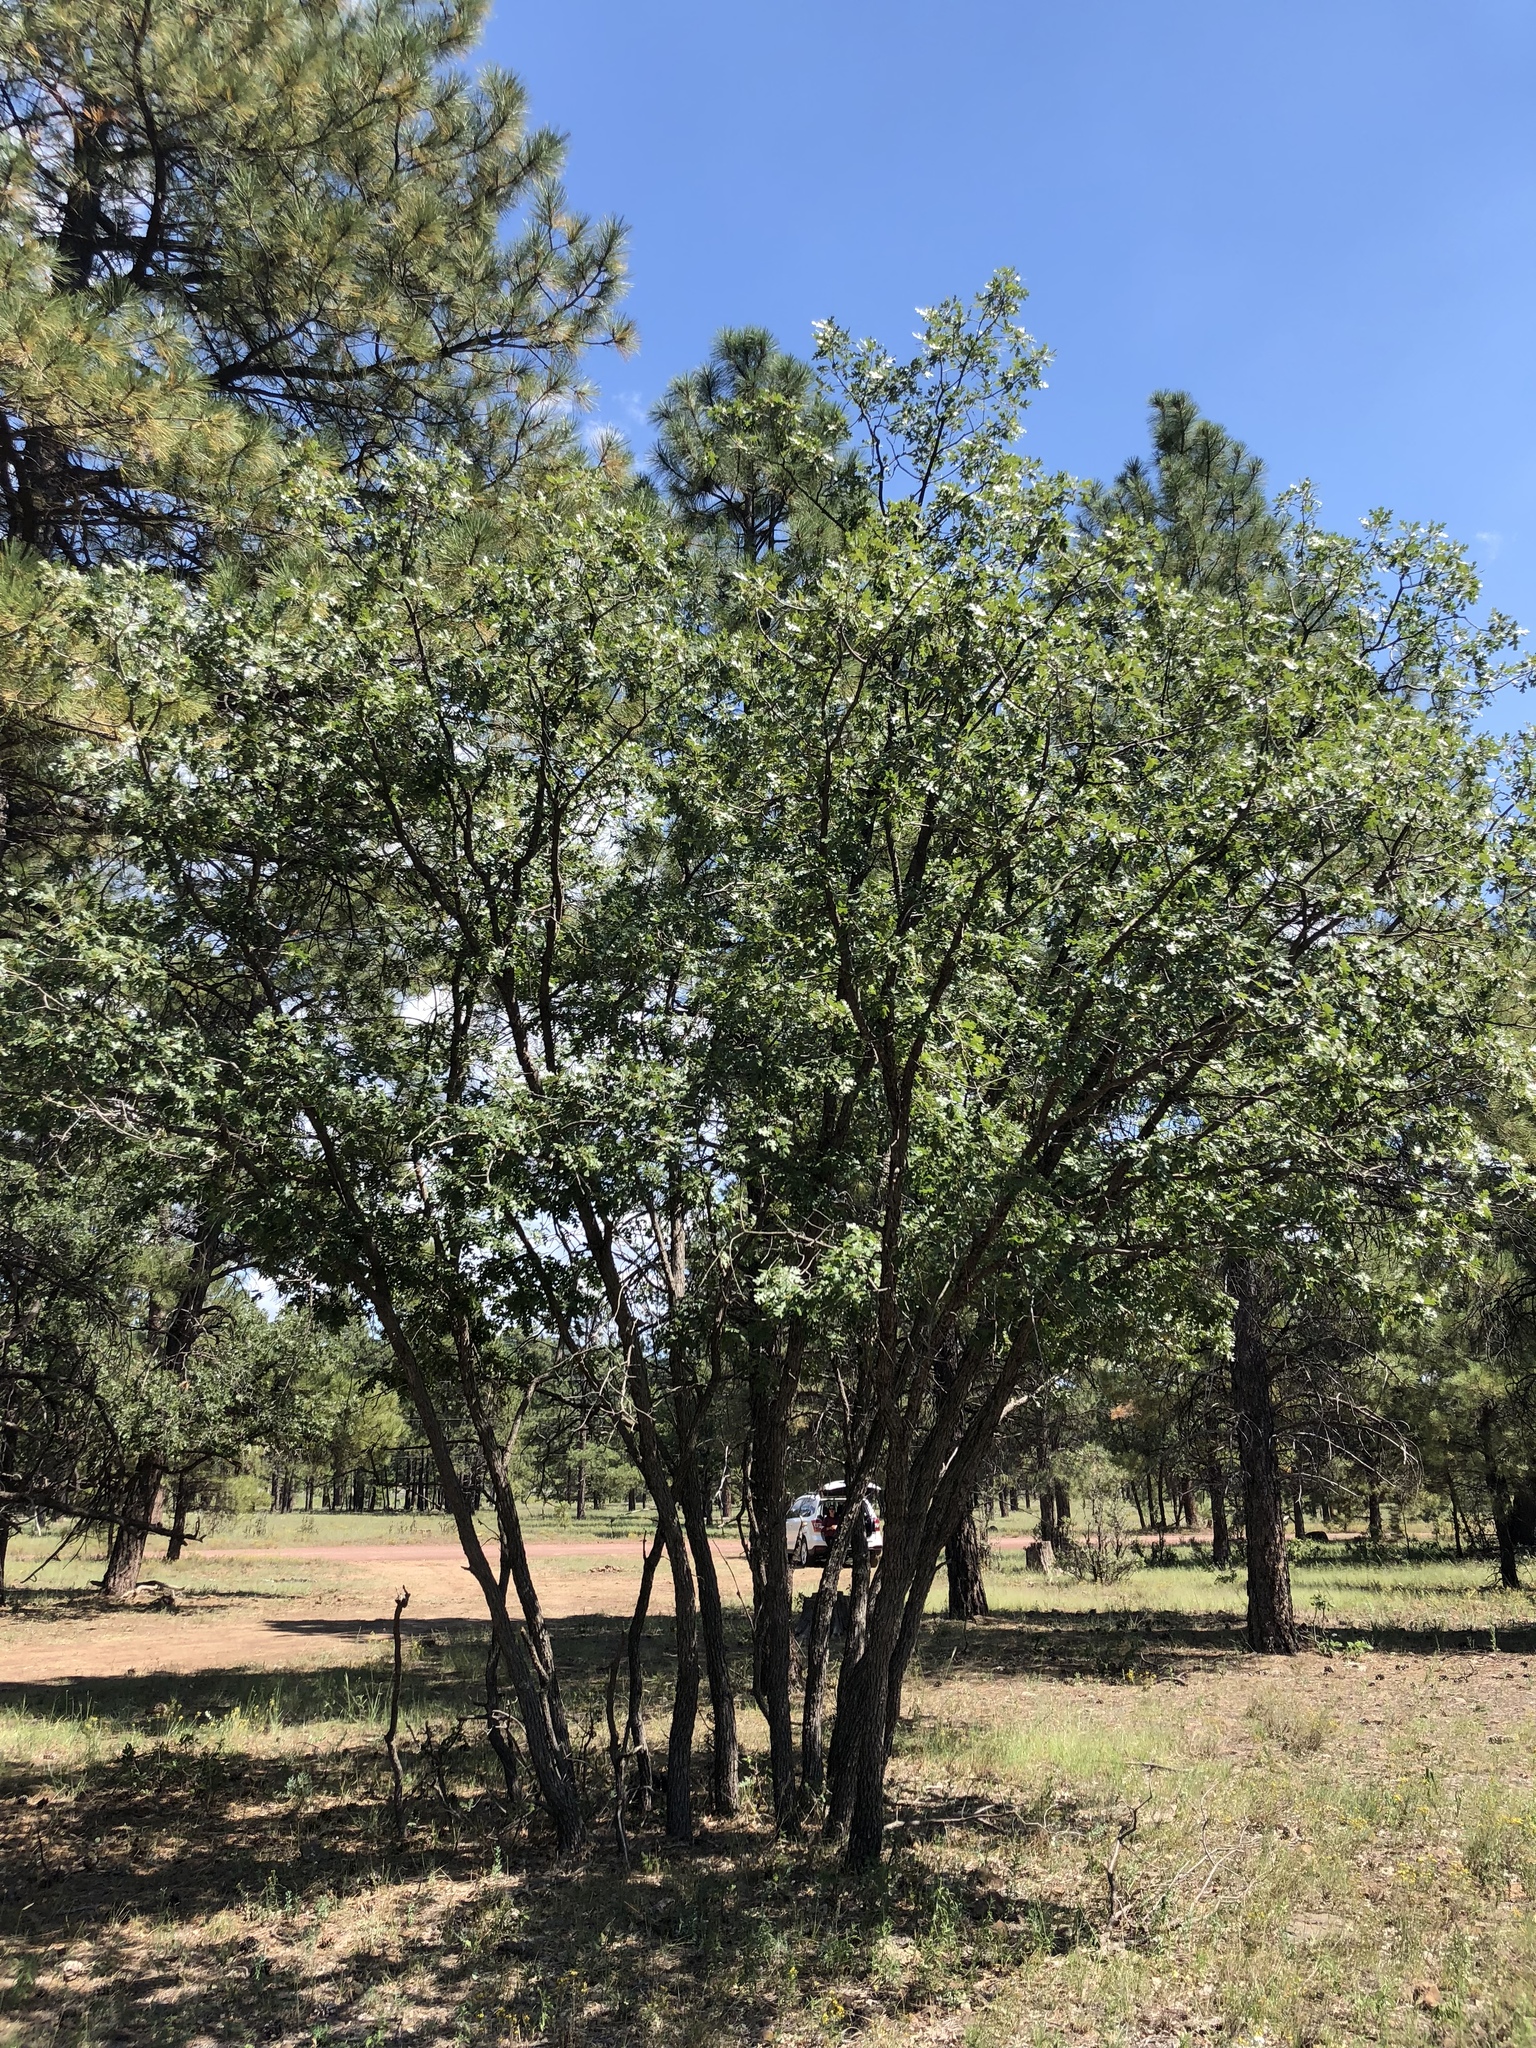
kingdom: Plantae
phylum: Tracheophyta
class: Magnoliopsida
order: Fagales
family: Fagaceae
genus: Quercus
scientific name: Quercus gambelii
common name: Gambel oak
